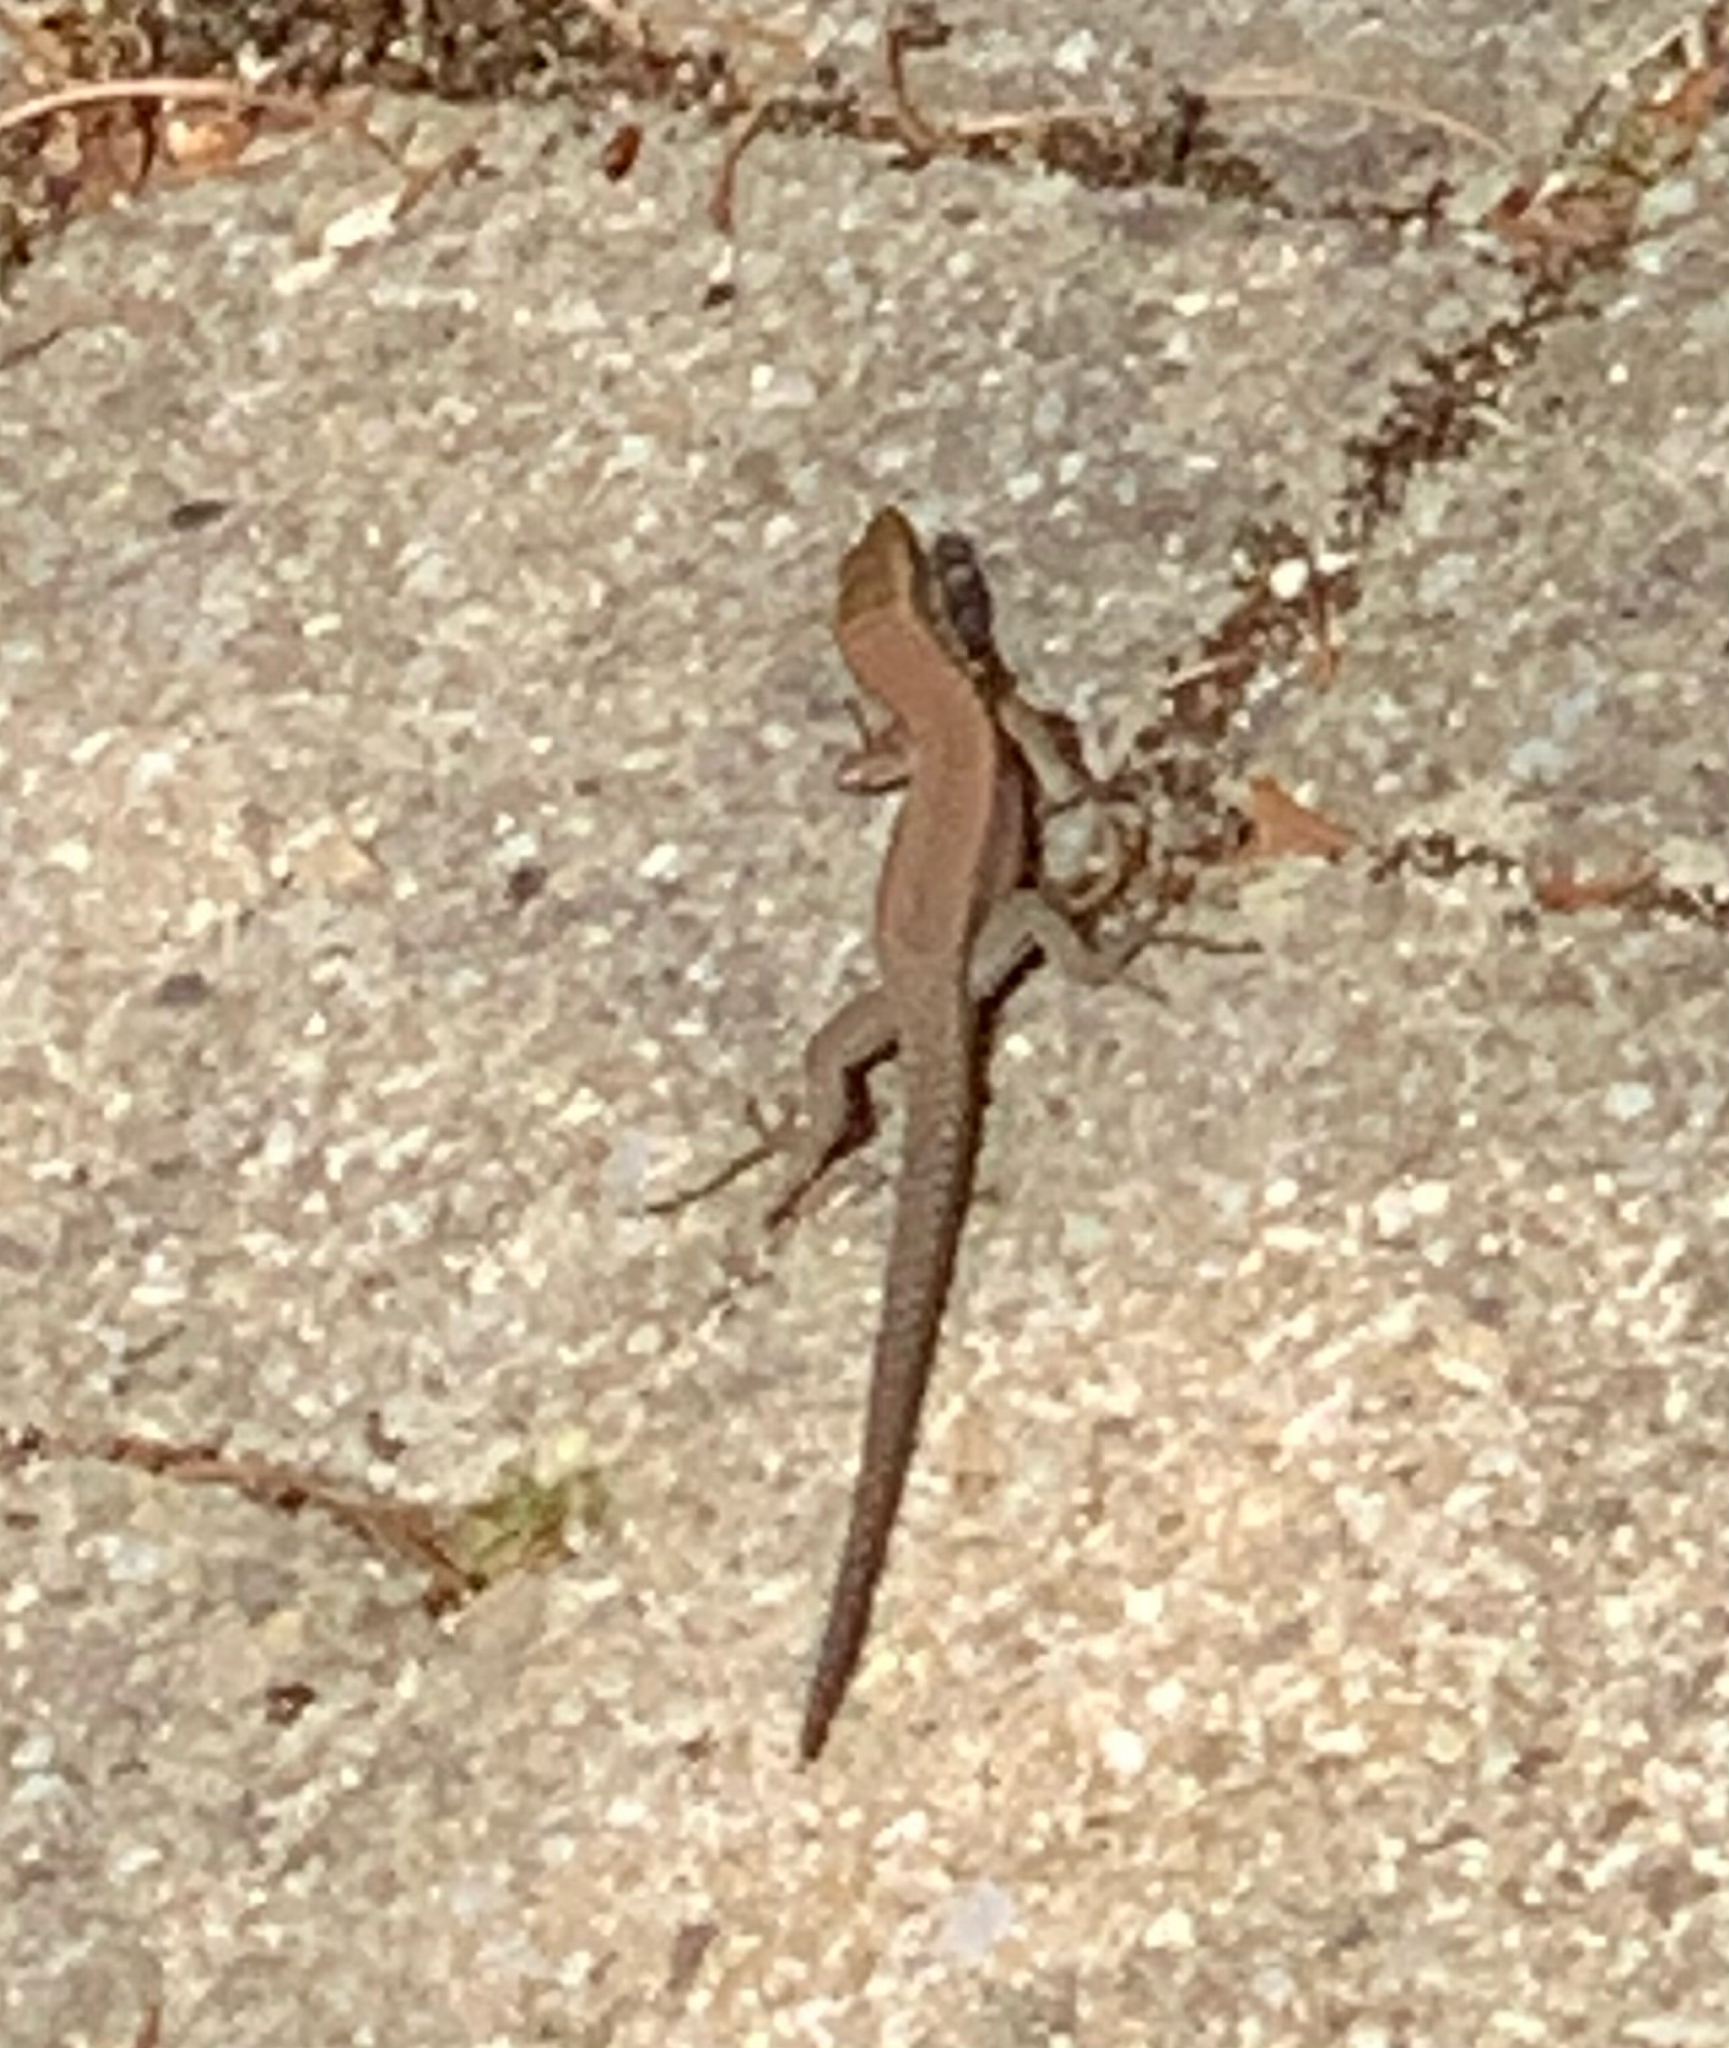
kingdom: Animalia
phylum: Chordata
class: Squamata
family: Lacertidae
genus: Podarcis
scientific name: Podarcis muralis
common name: Common wall lizard
